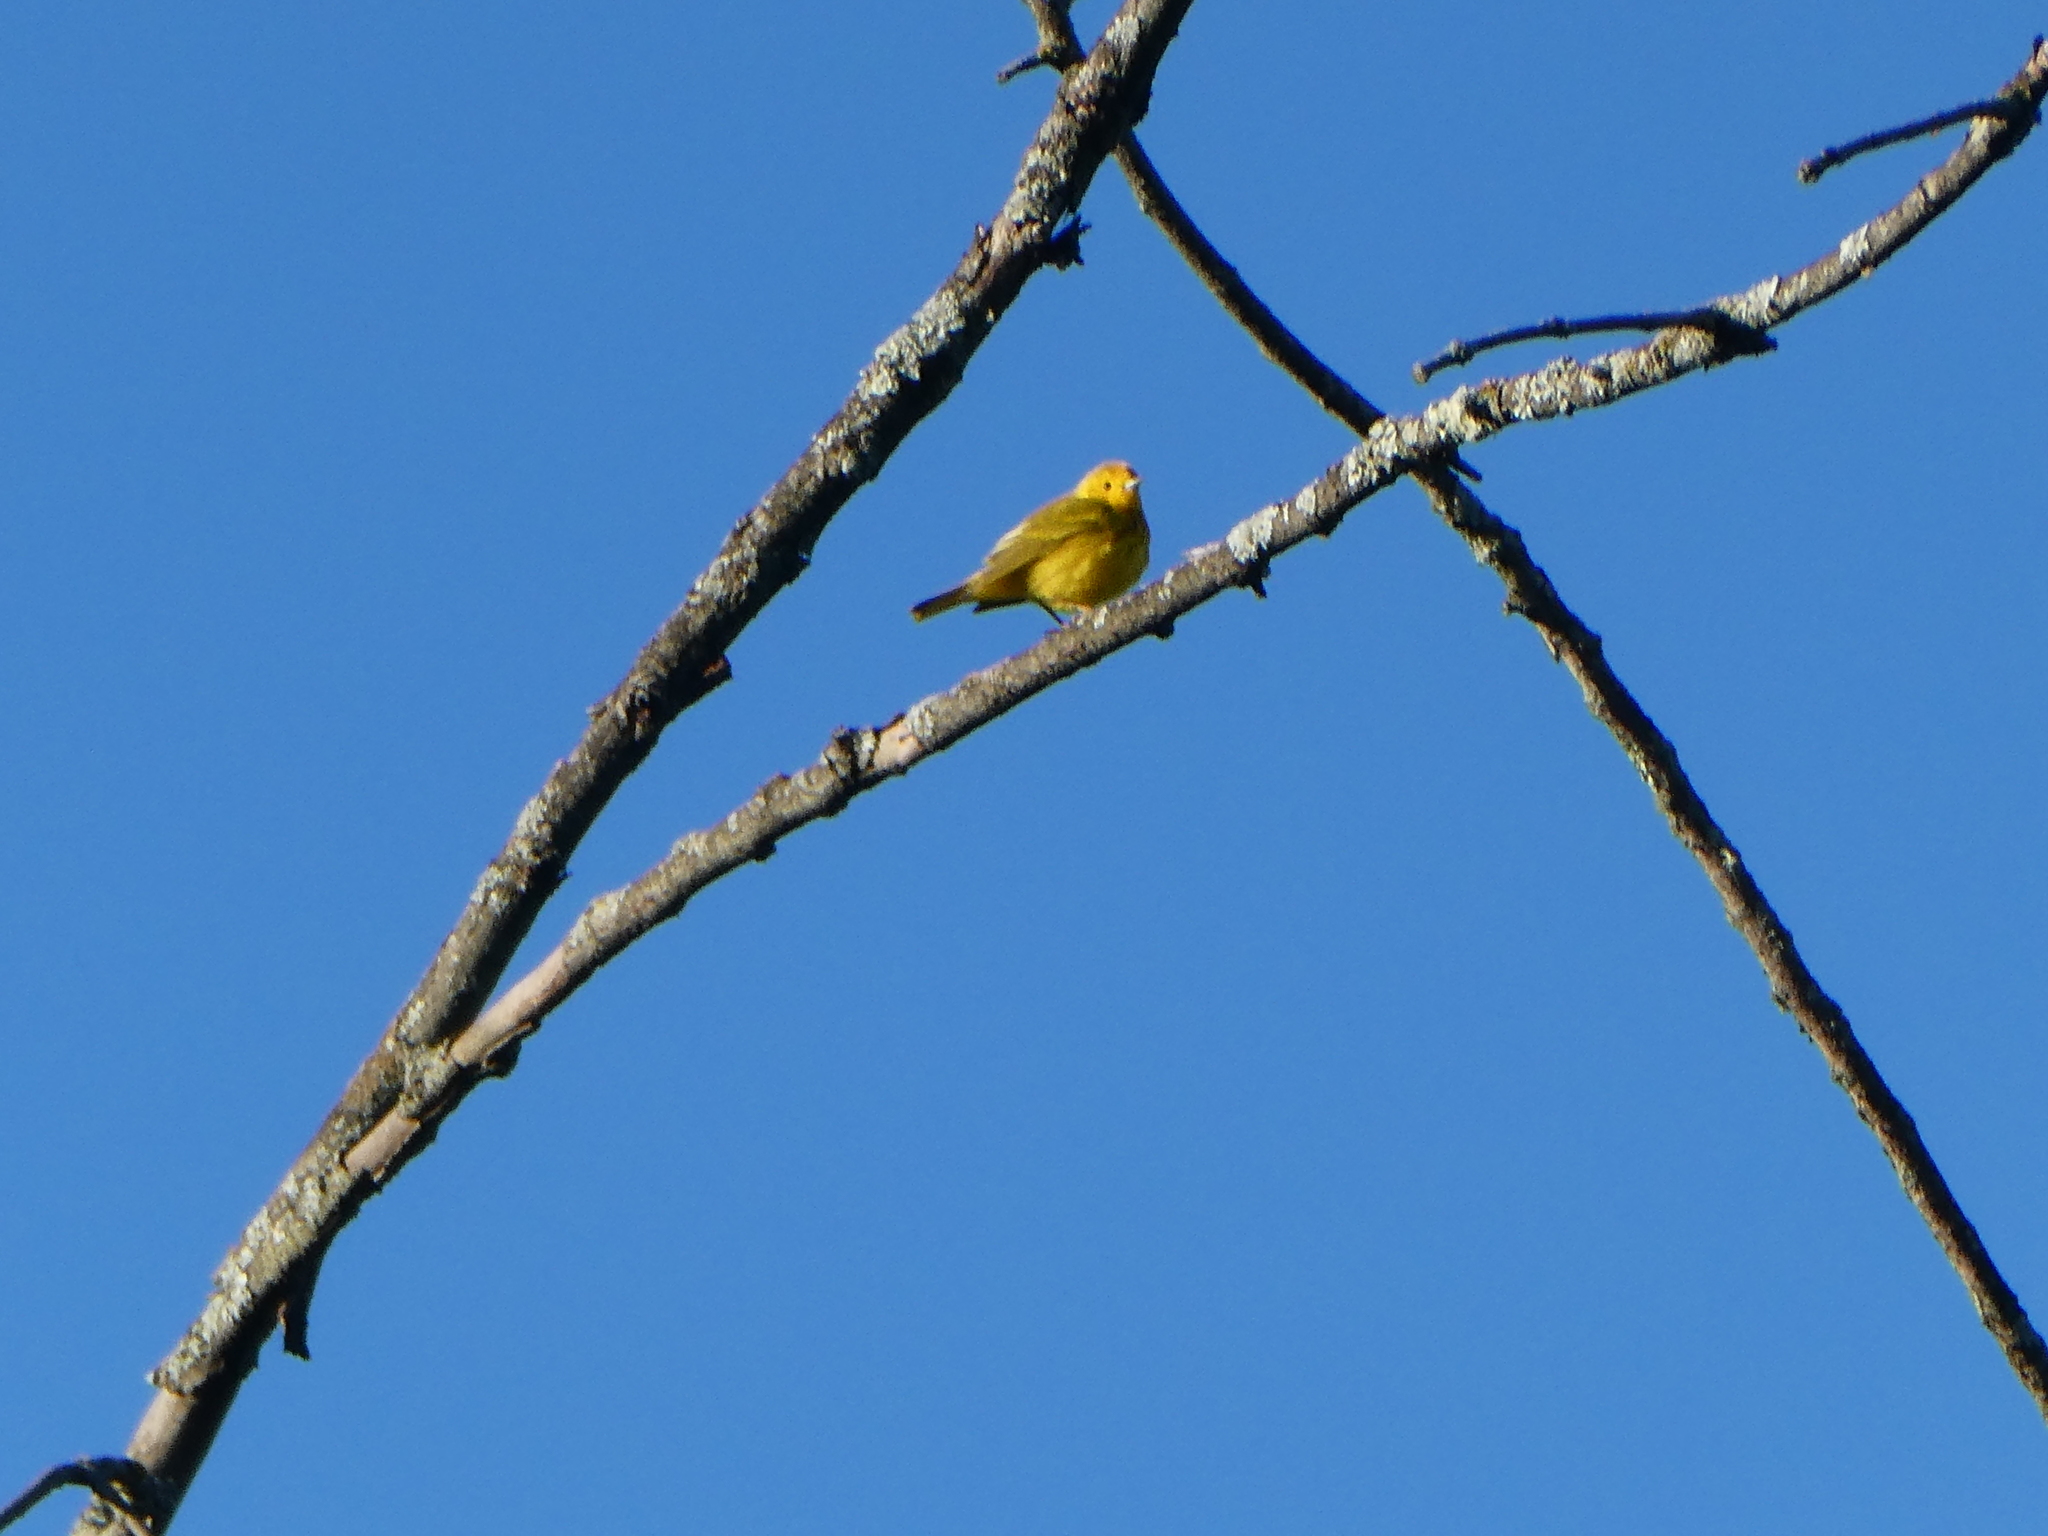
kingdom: Animalia
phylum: Chordata
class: Aves
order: Passeriformes
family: Parulidae
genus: Setophaga
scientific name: Setophaga petechia
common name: Yellow warbler
